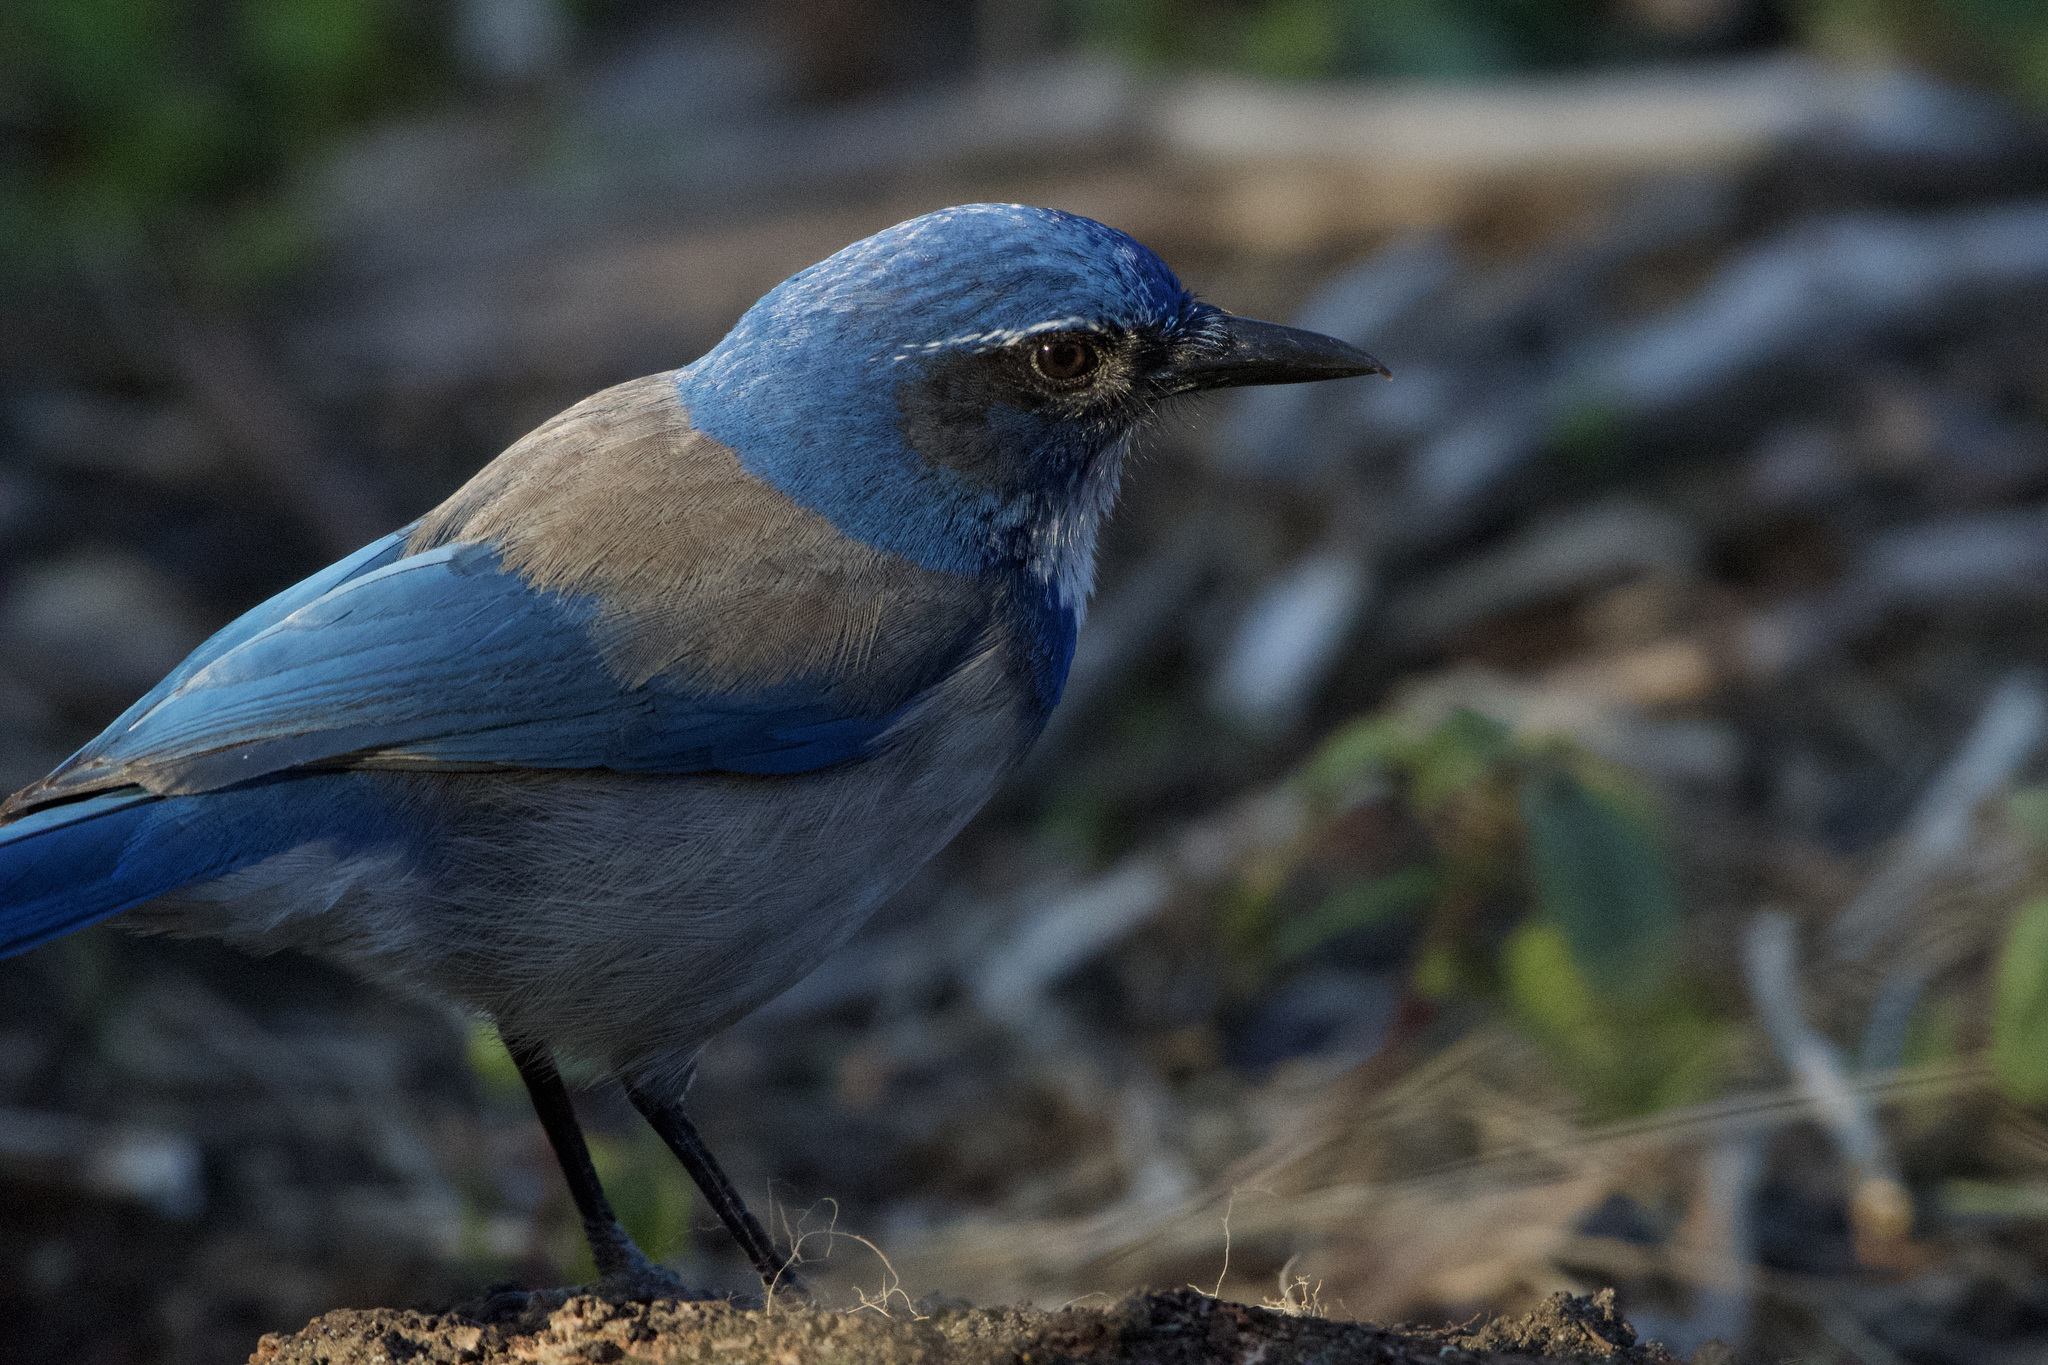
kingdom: Animalia
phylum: Chordata
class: Aves
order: Passeriformes
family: Corvidae
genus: Aphelocoma
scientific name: Aphelocoma californica
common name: California scrub-jay
